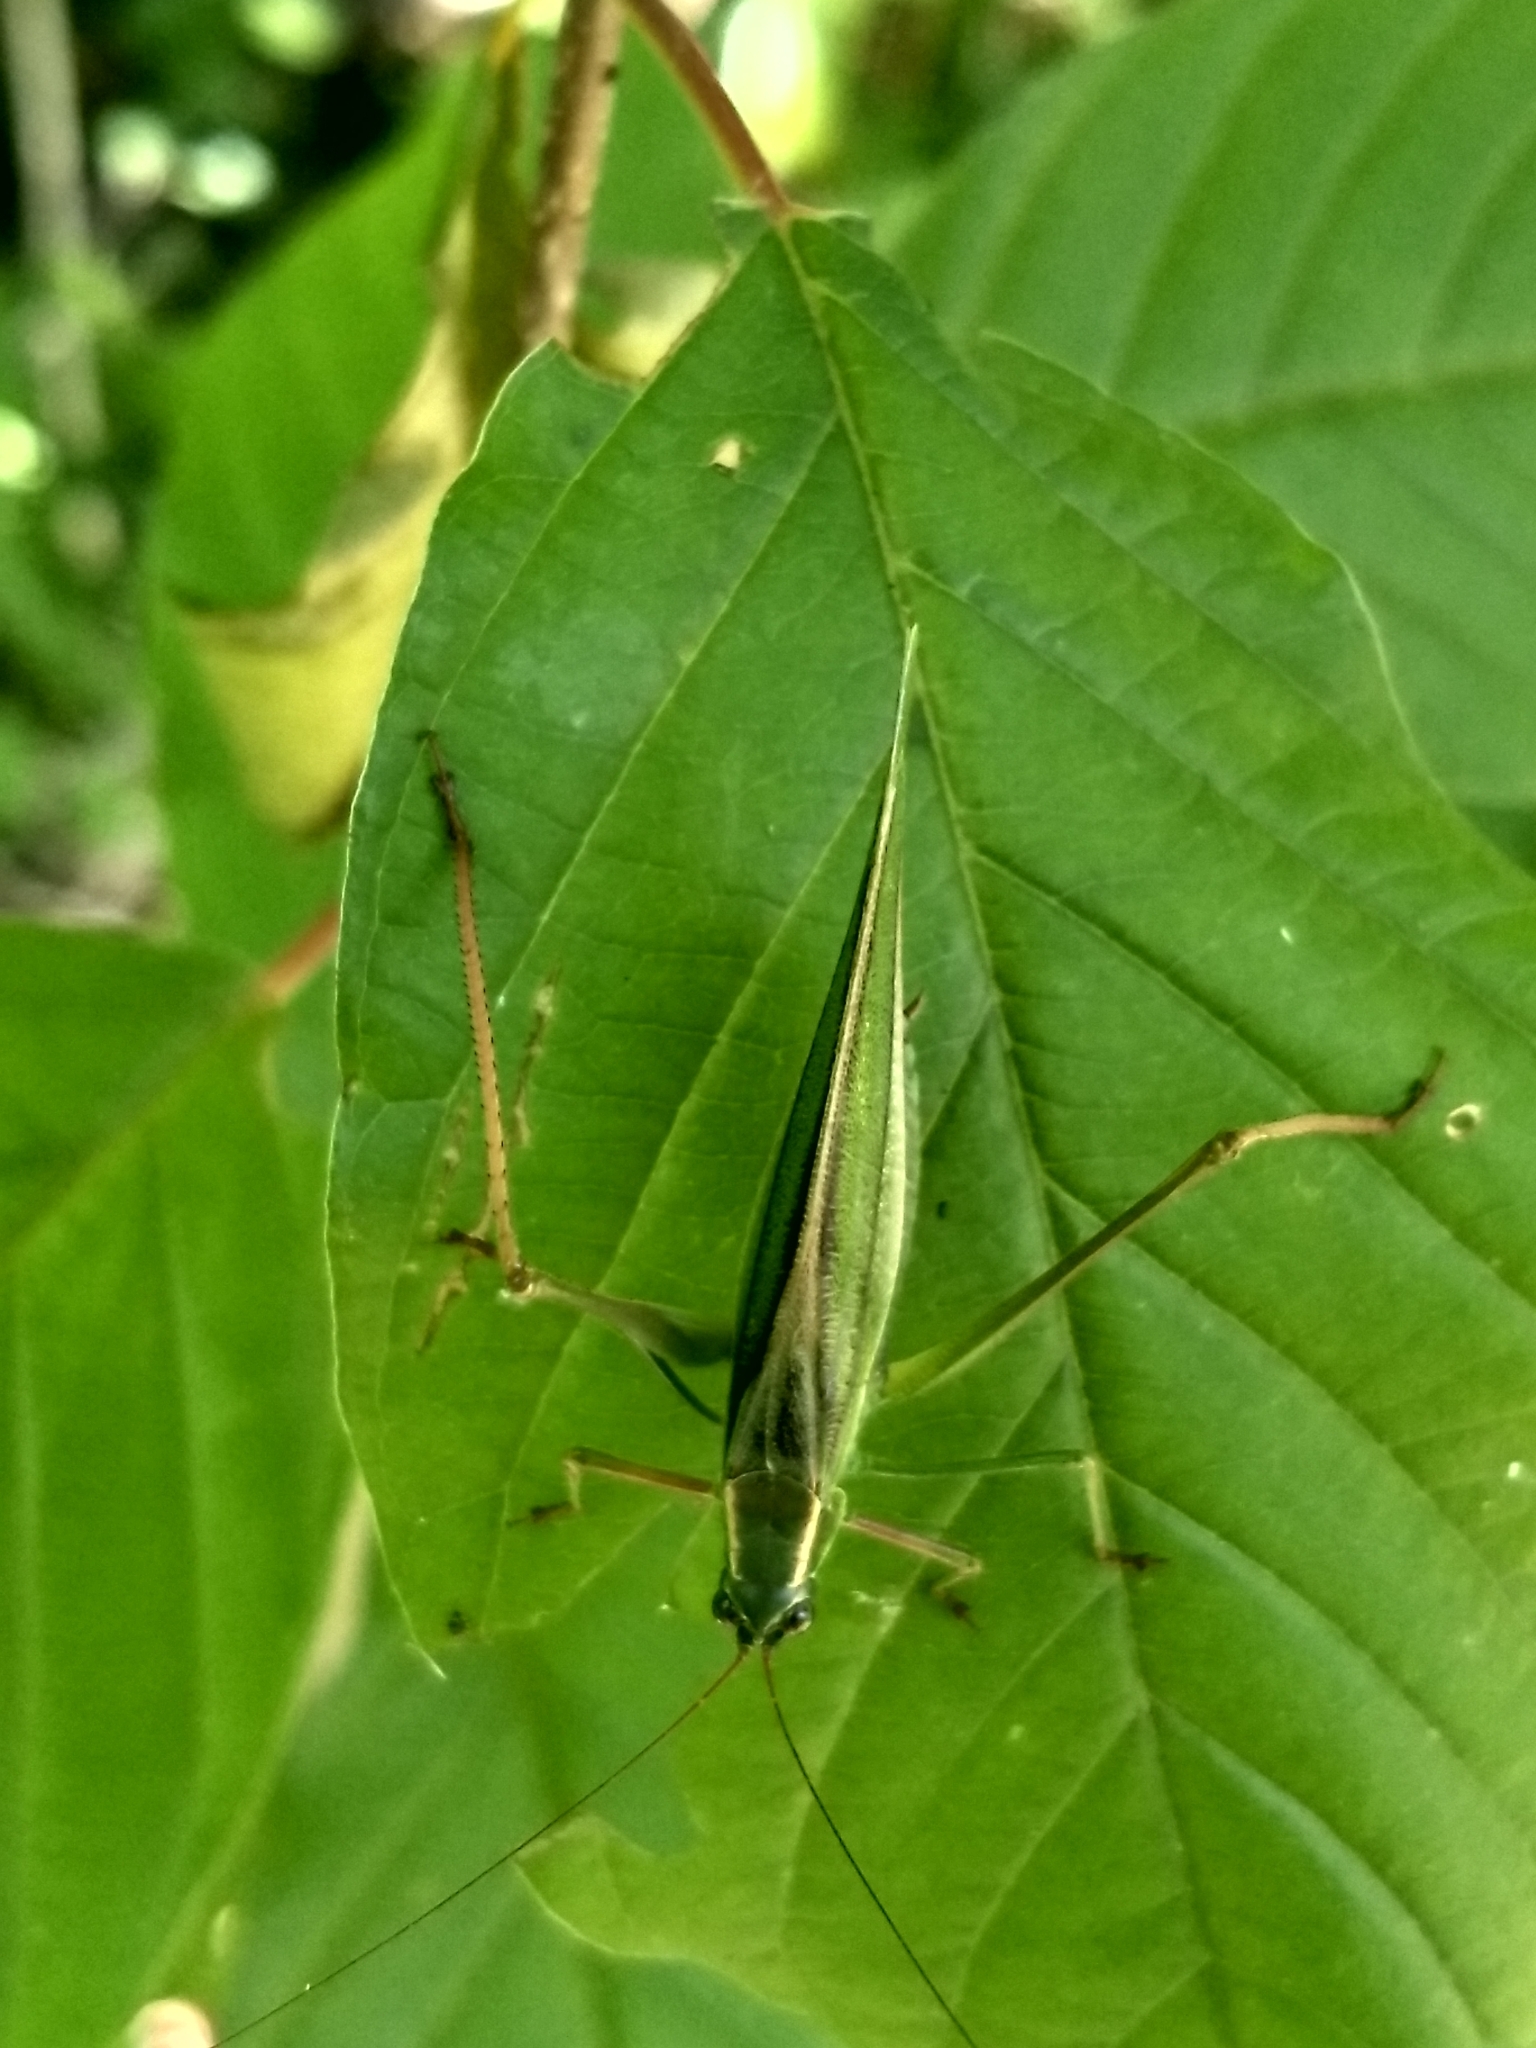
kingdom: Animalia
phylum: Arthropoda
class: Insecta
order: Orthoptera
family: Tettigoniidae
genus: Scudderia
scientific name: Scudderia fasciata
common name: Treetop bush katydid
